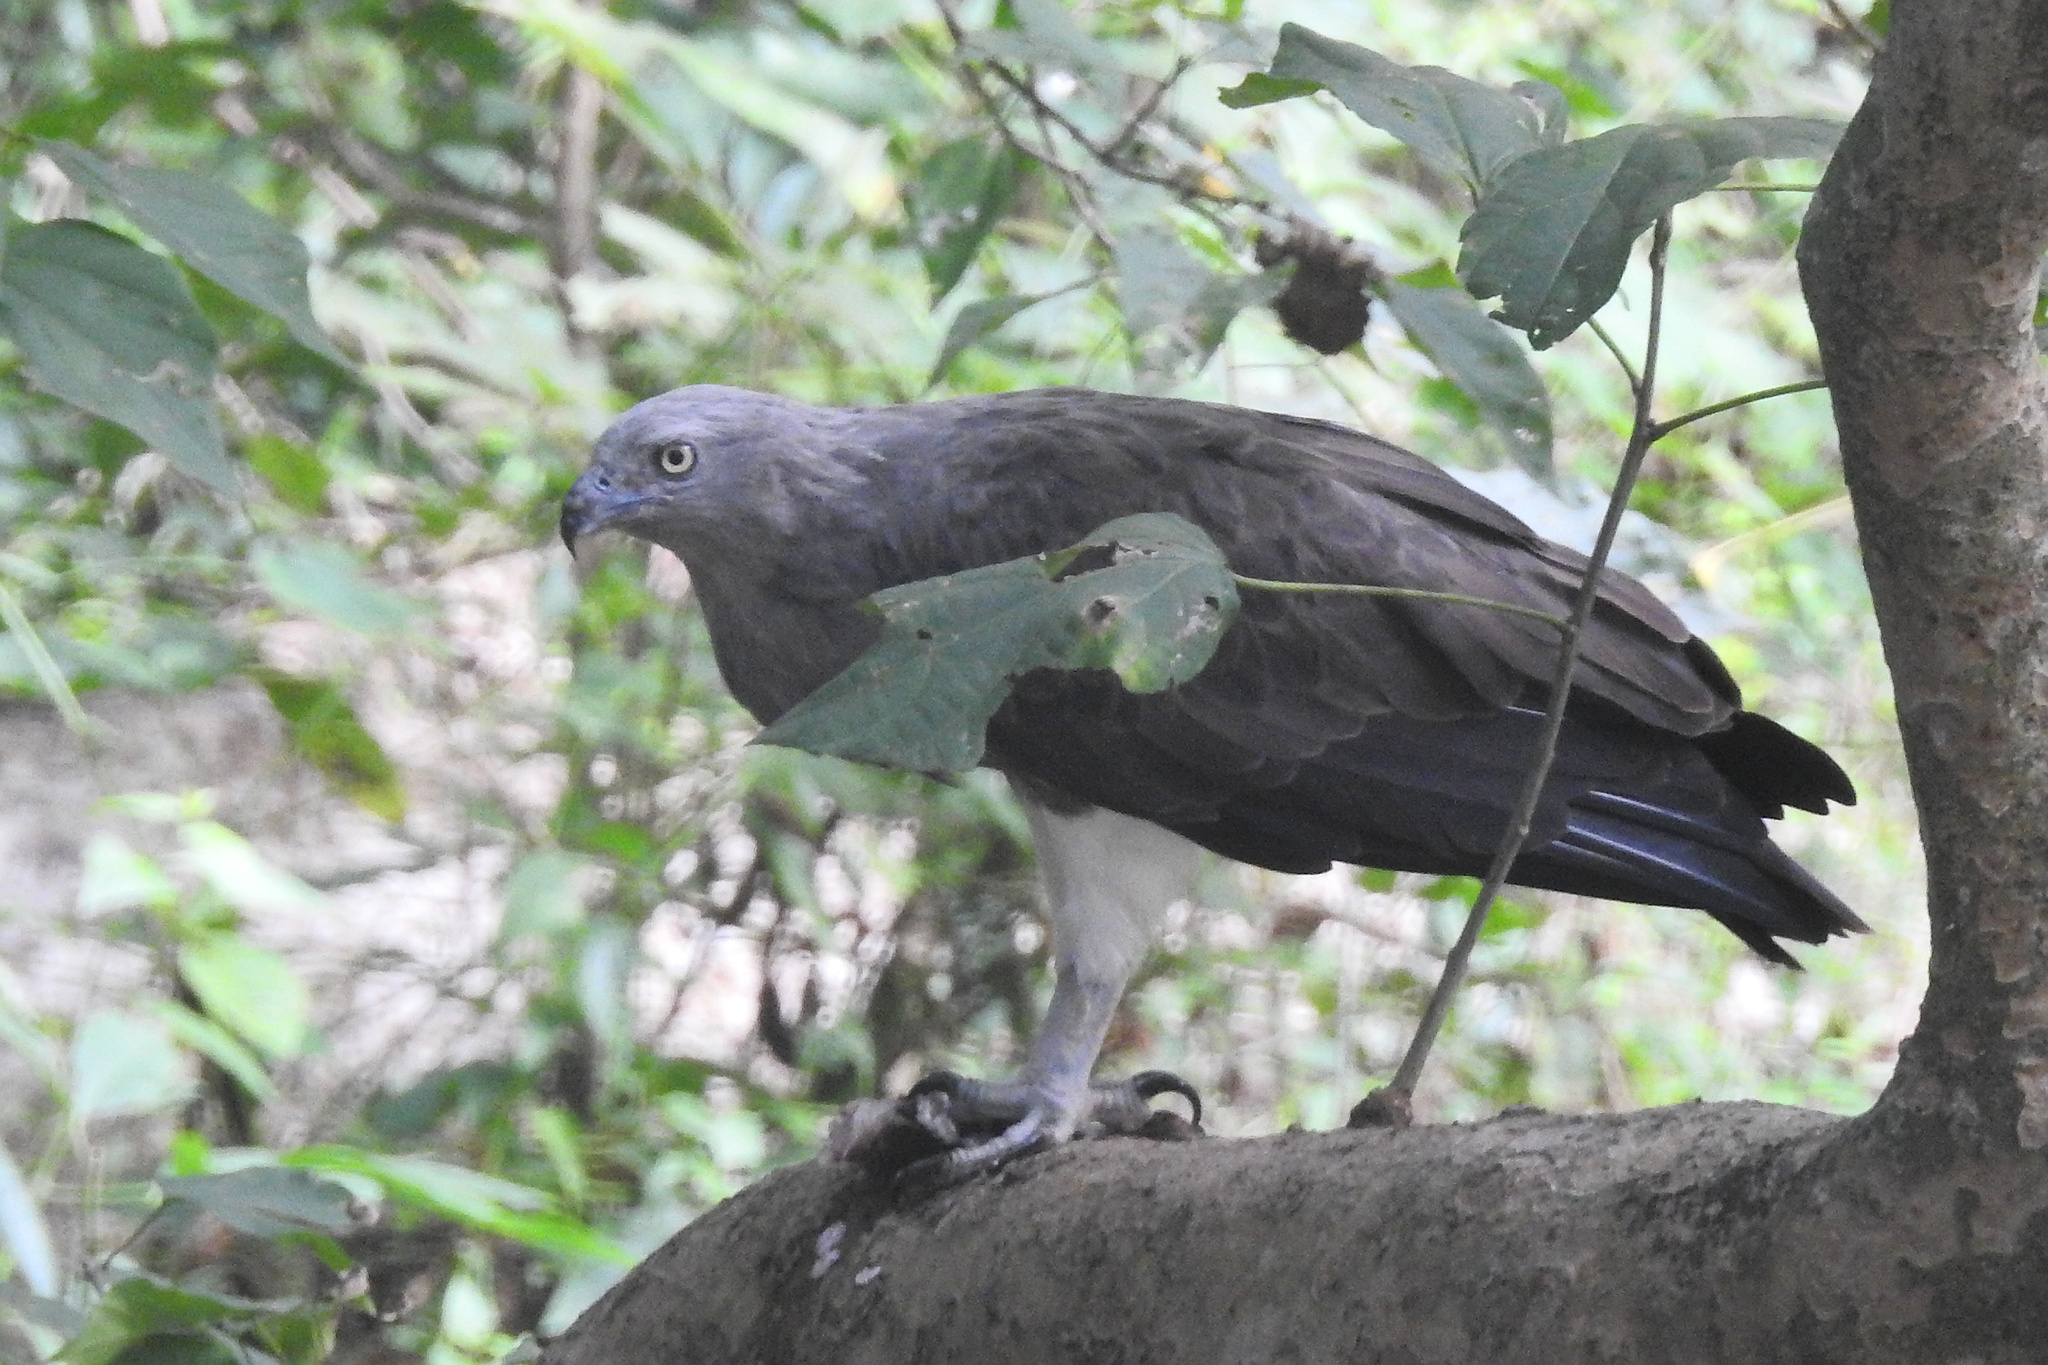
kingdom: Animalia
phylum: Chordata
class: Aves
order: Accipitriformes
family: Accipitridae
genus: Icthyophaga
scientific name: Icthyophaga humilis
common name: Lesser fish-eagle
